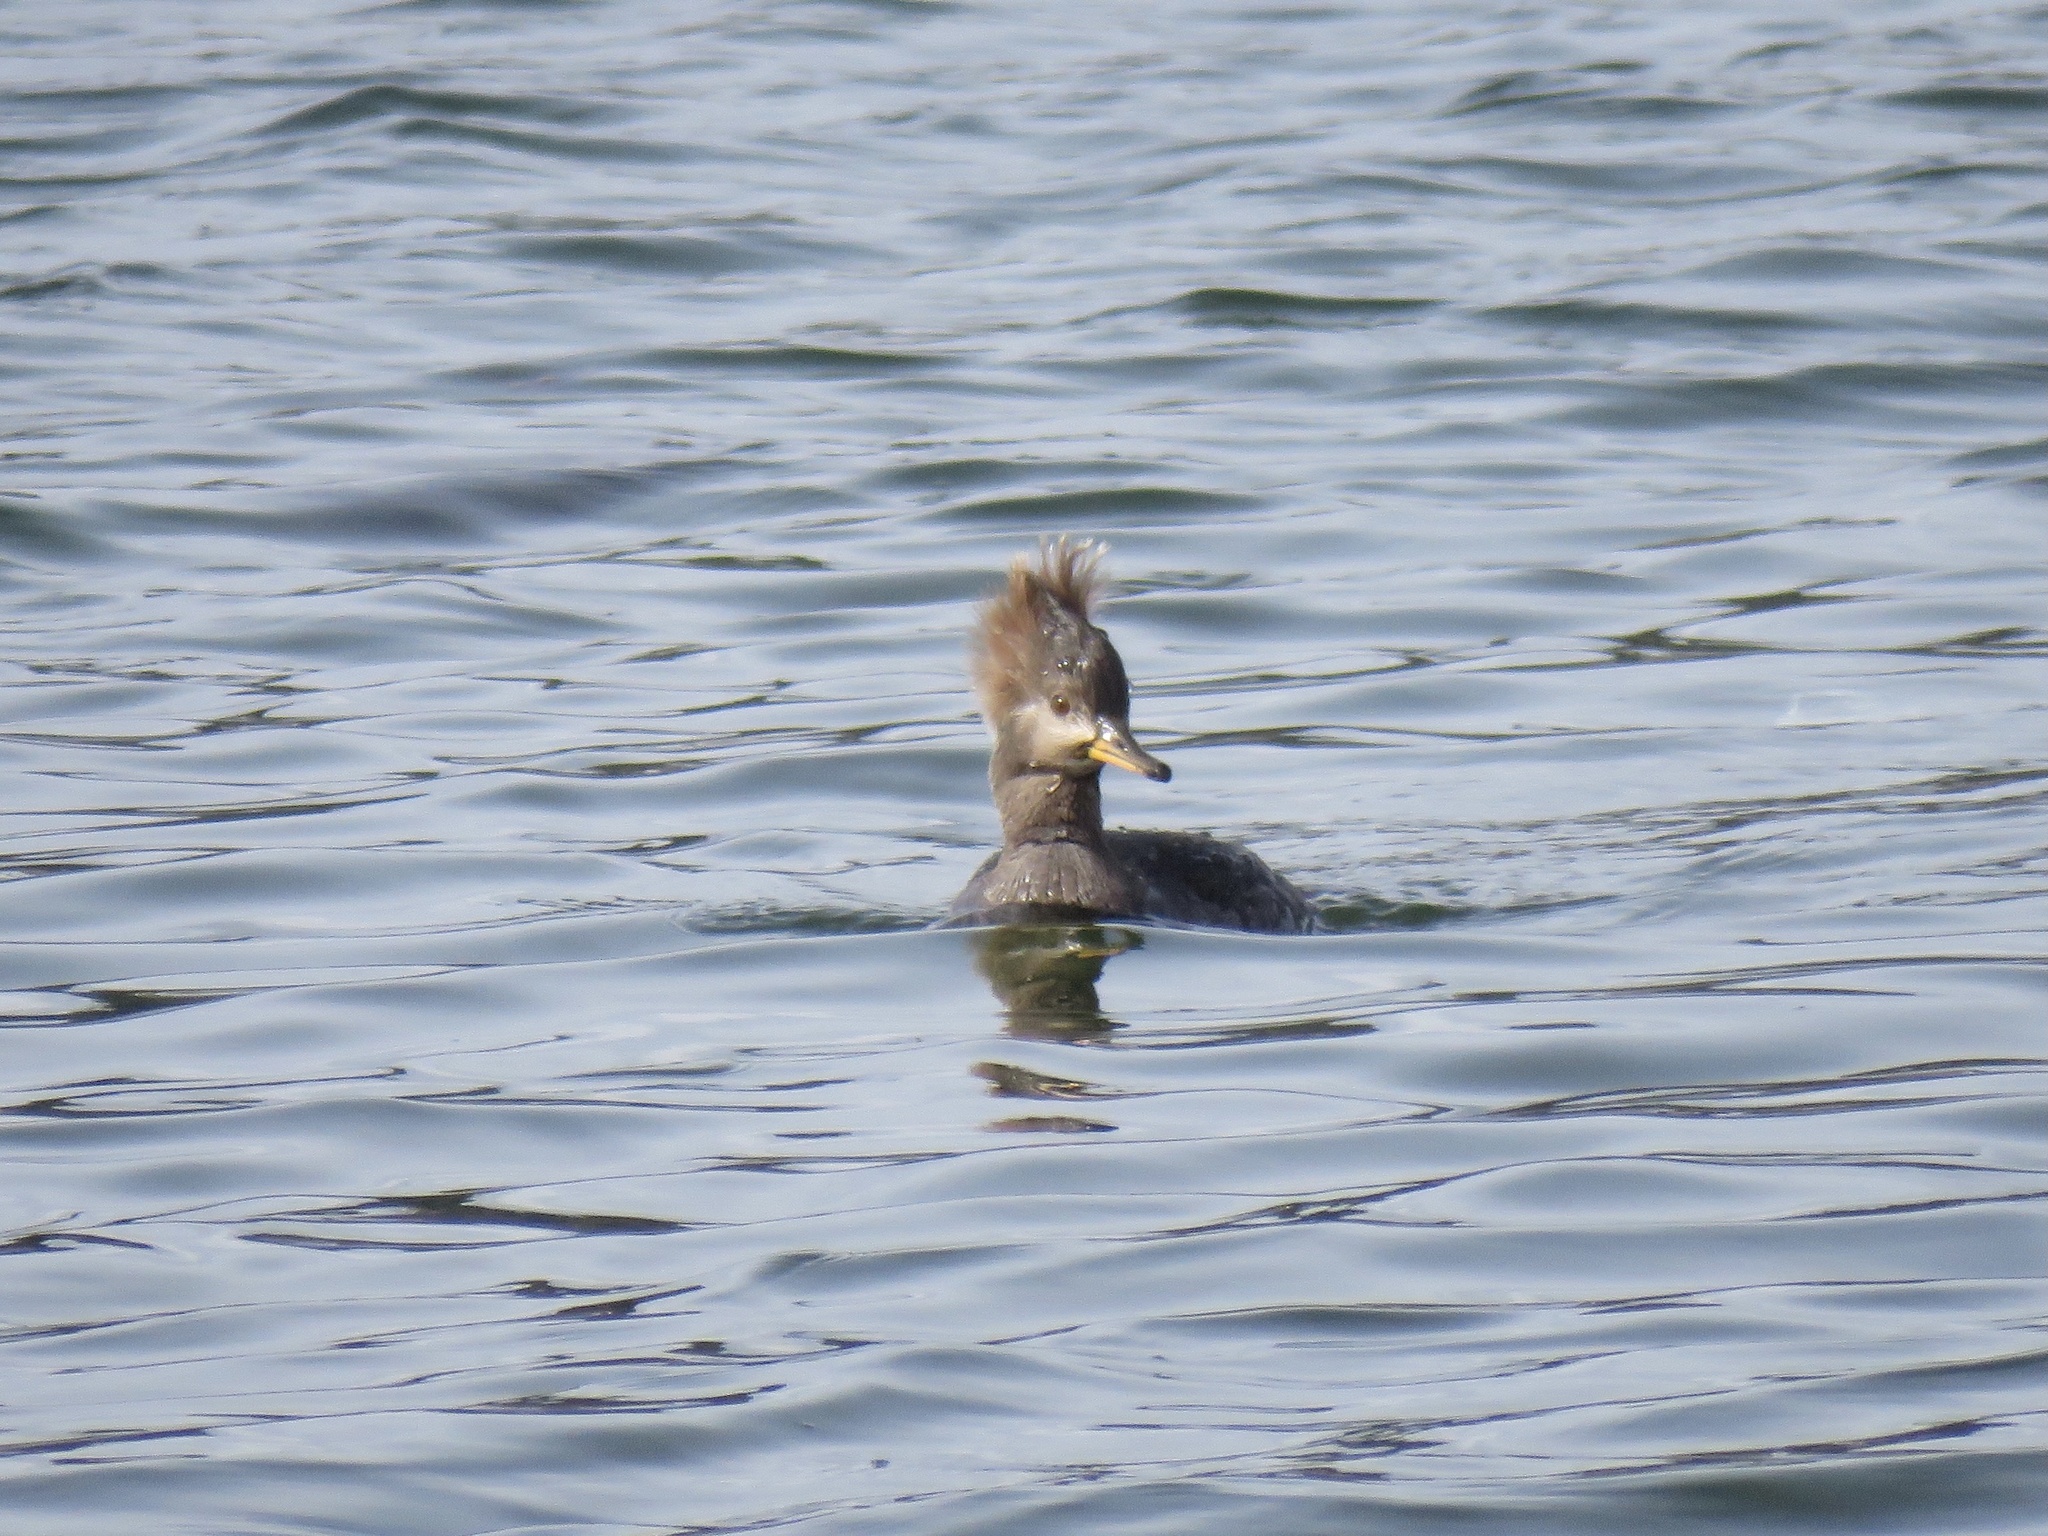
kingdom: Animalia
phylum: Chordata
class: Aves
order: Anseriformes
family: Anatidae
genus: Lophodytes
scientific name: Lophodytes cucullatus
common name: Hooded merganser
